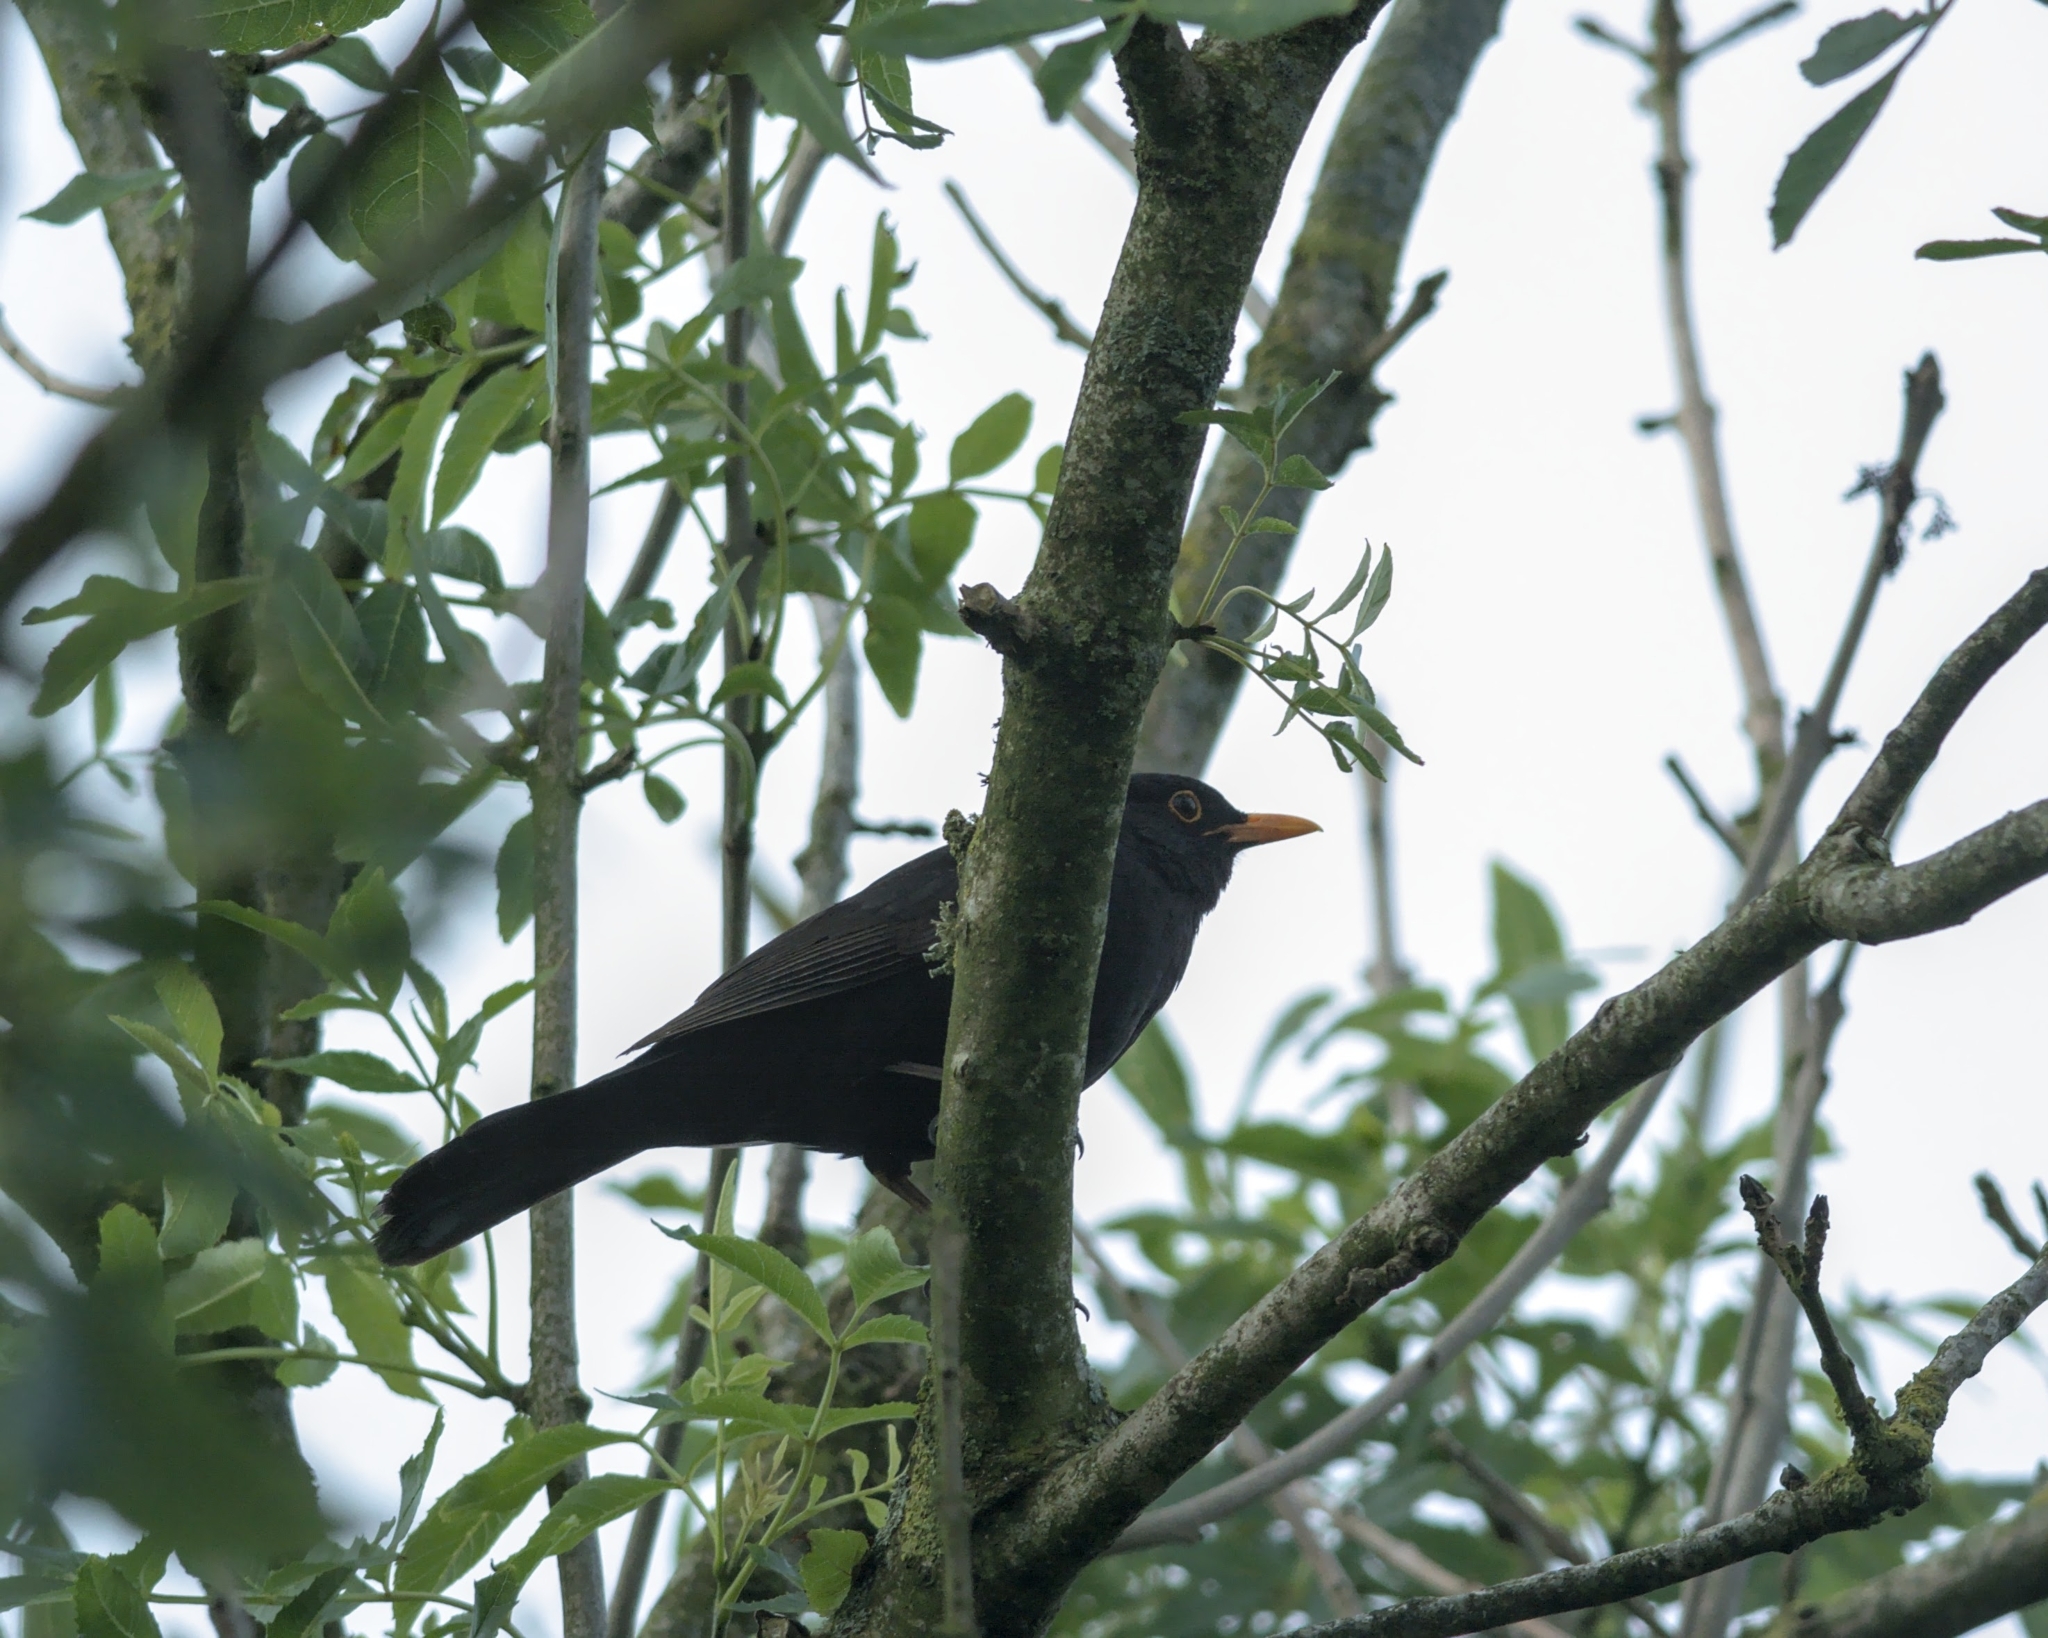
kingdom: Animalia
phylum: Chordata
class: Aves
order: Passeriformes
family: Turdidae
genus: Turdus
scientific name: Turdus merula
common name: Common blackbird
